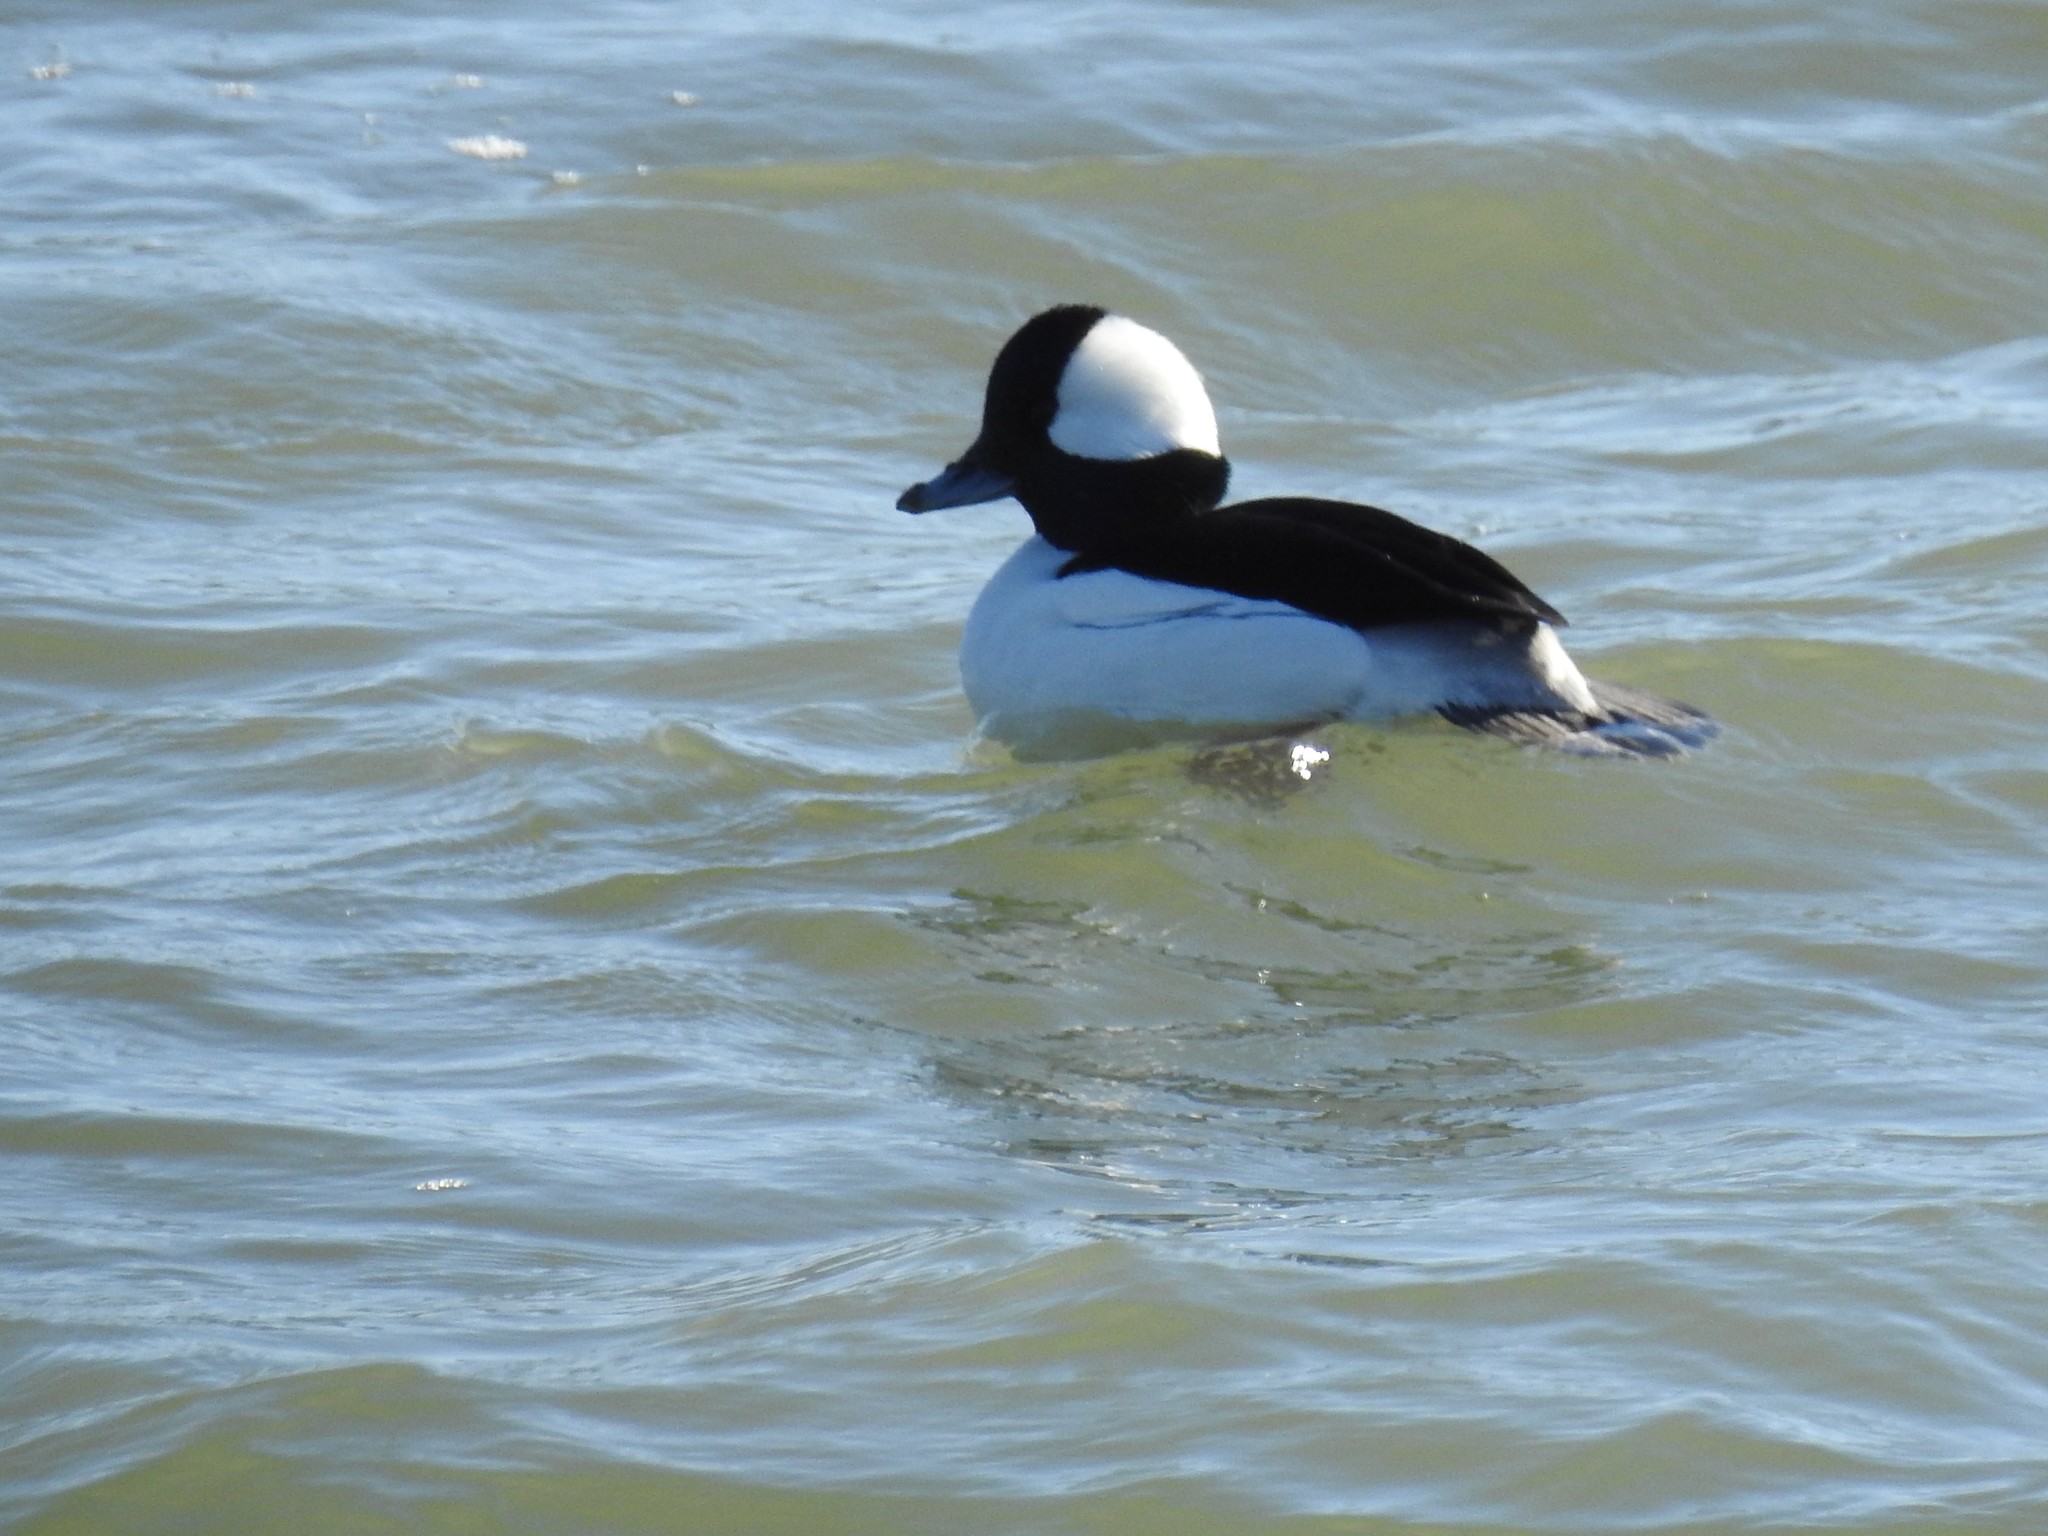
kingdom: Animalia
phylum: Chordata
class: Aves
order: Anseriformes
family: Anatidae
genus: Bucephala
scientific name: Bucephala albeola
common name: Bufflehead
